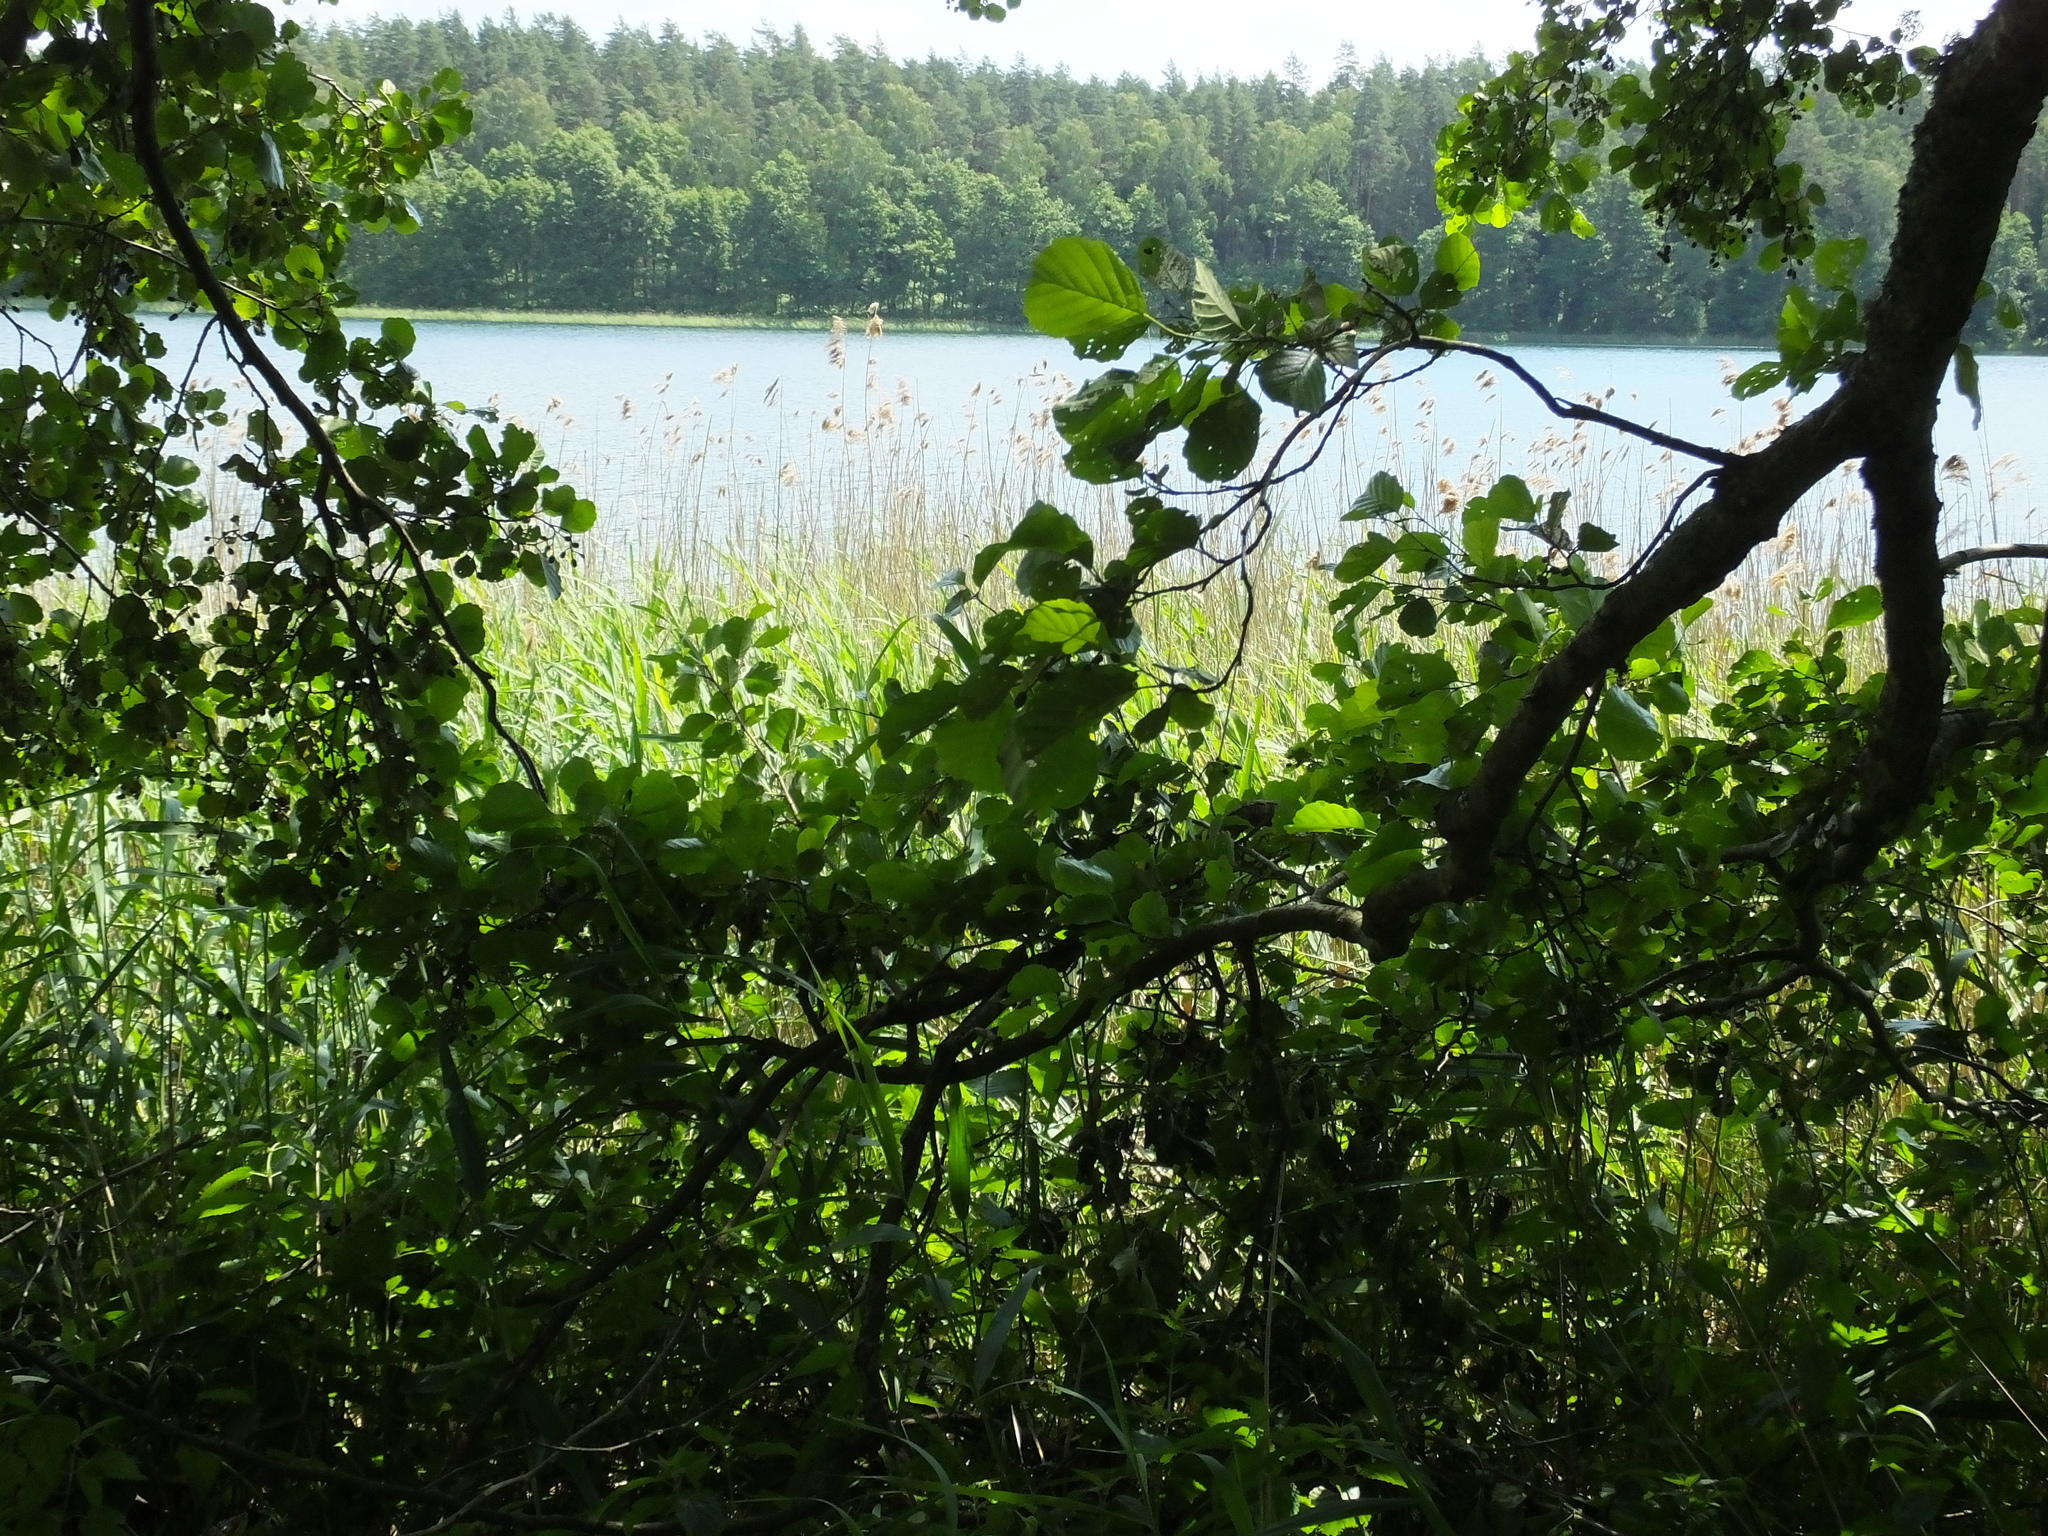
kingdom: Plantae
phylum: Tracheophyta
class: Magnoliopsida
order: Fagales
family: Betulaceae
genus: Alnus
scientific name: Alnus glutinosa
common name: Black alder
